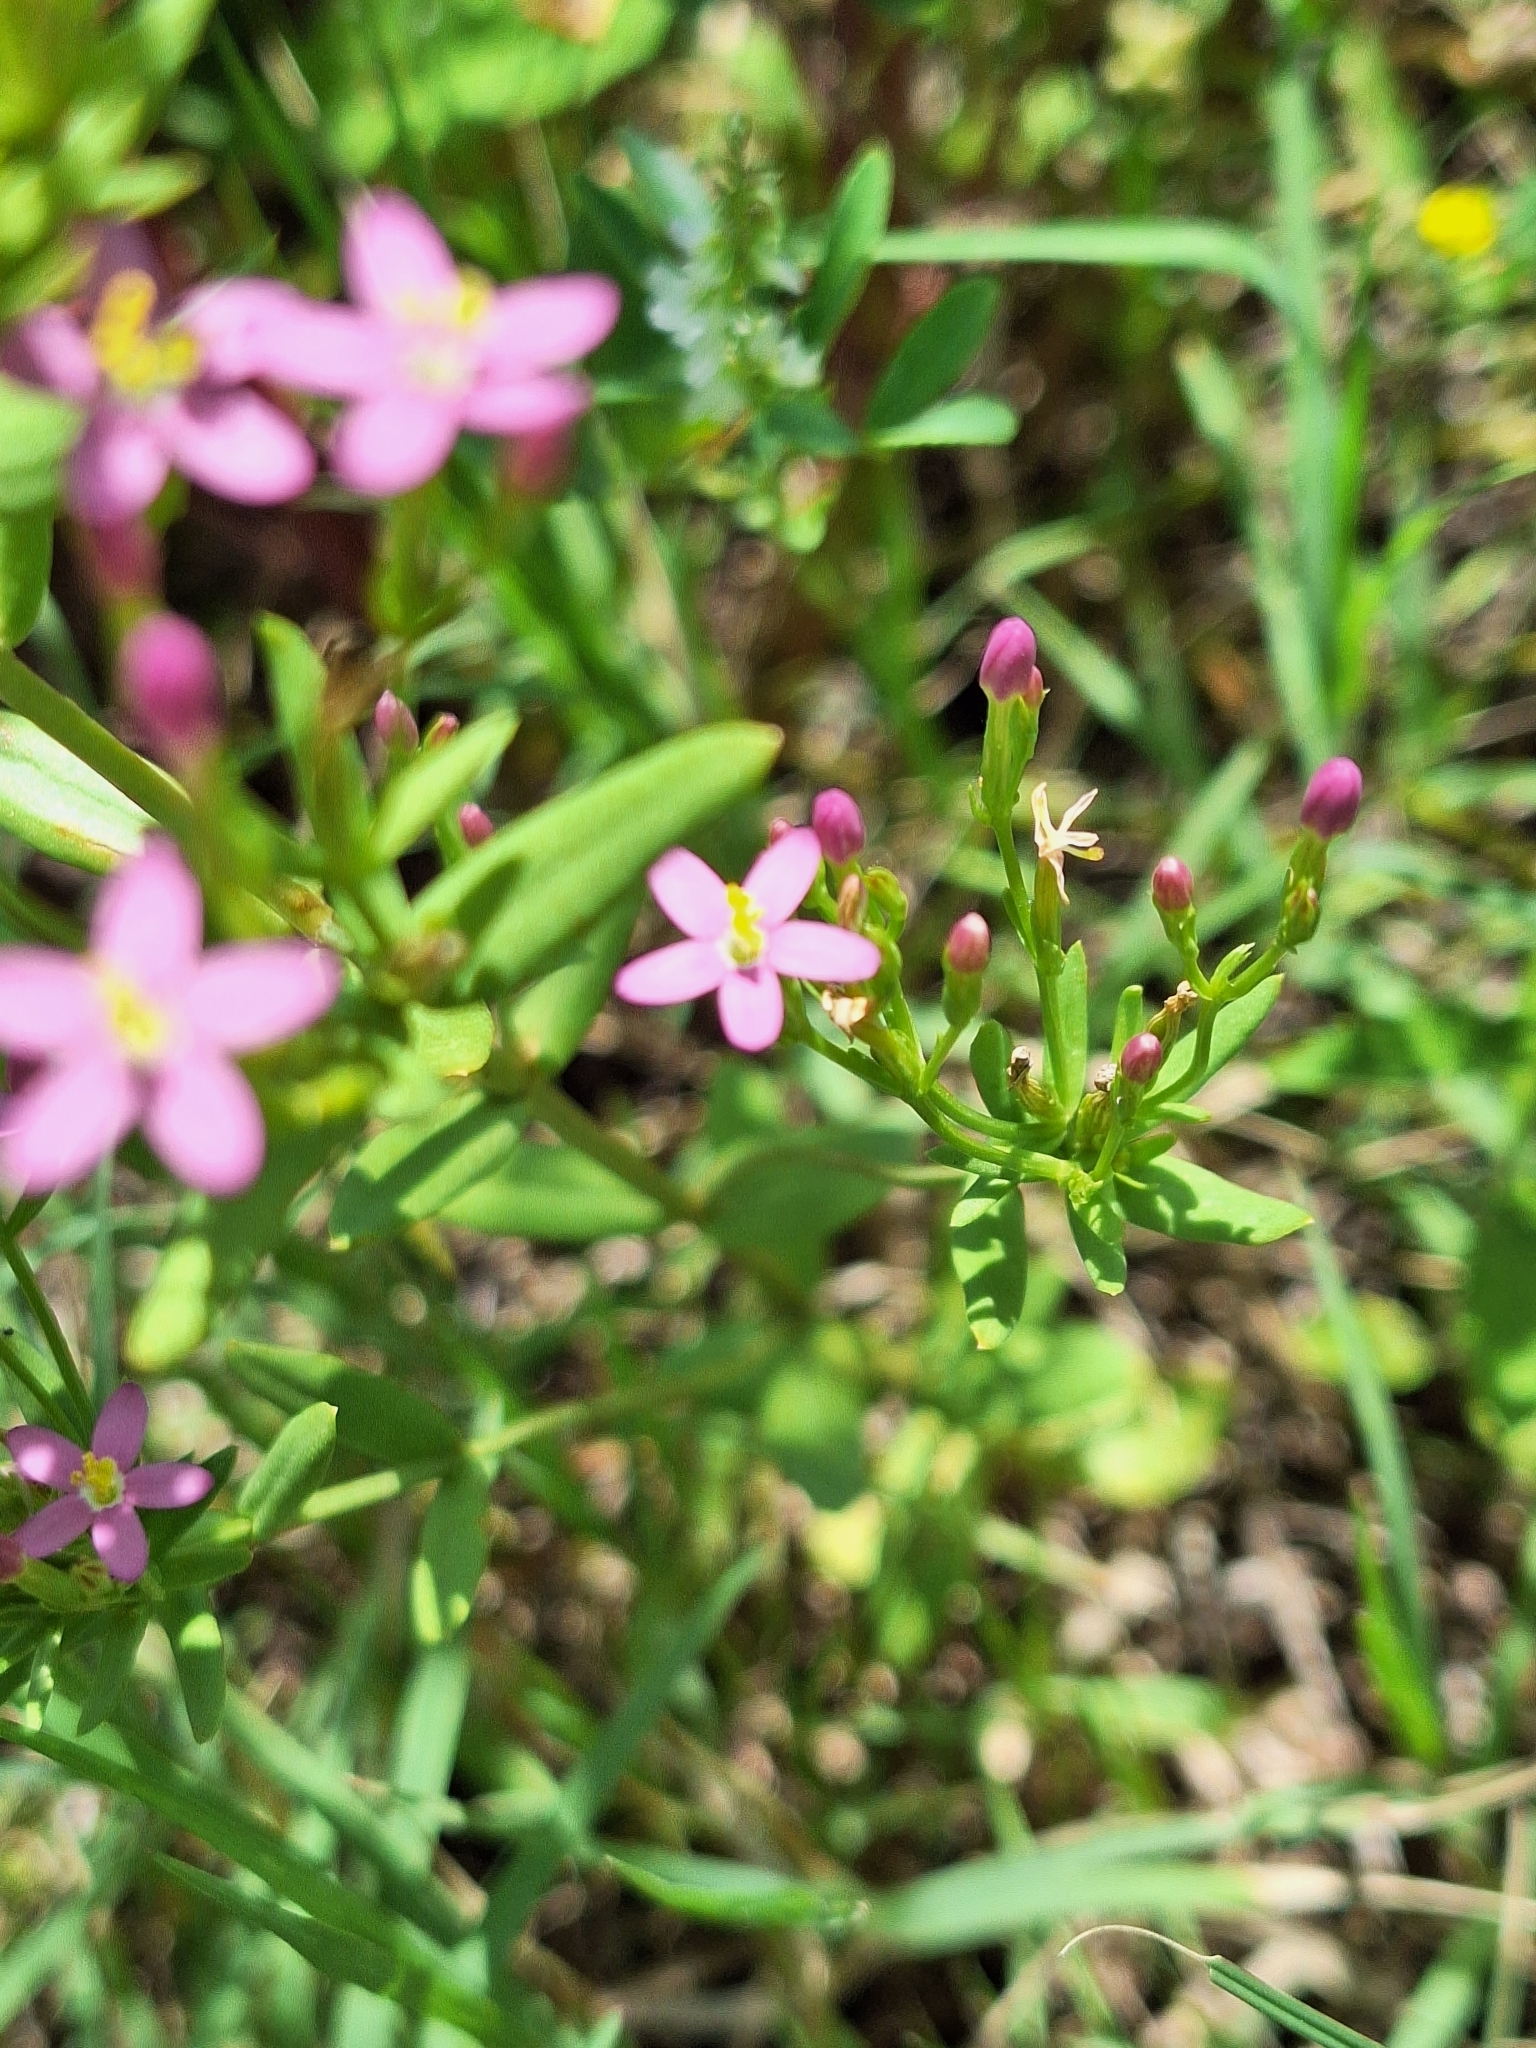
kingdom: Plantae
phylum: Tracheophyta
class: Magnoliopsida
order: Gentianales
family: Gentianaceae
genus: Centaurium
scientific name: Centaurium pulchellum
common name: Lesser centaury
